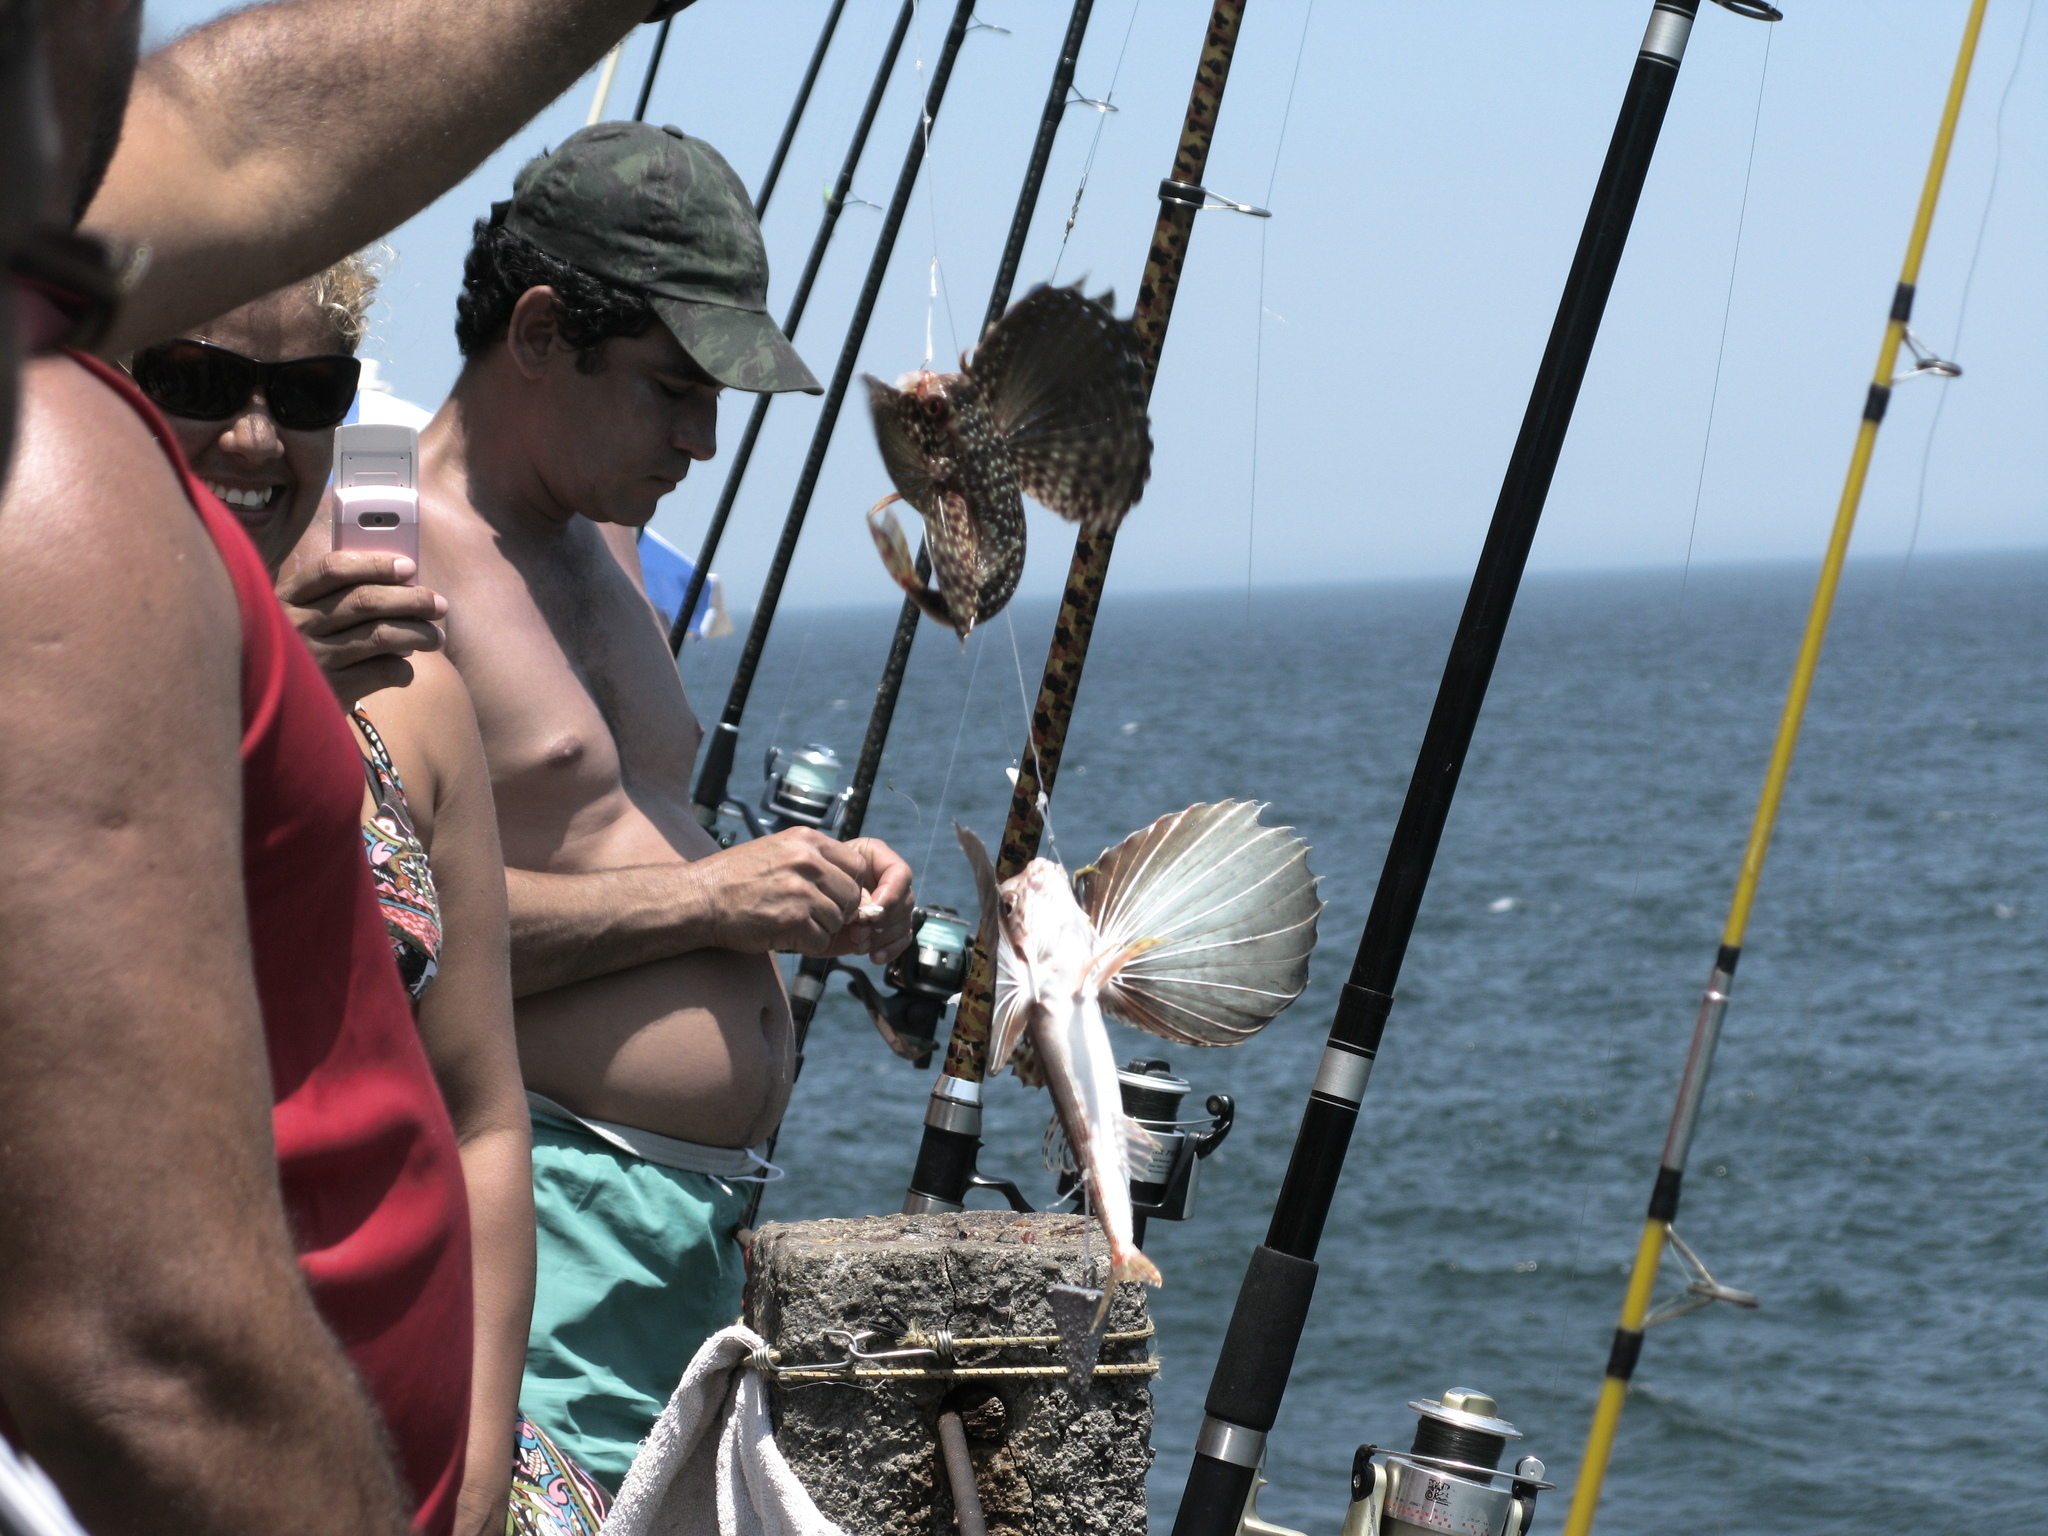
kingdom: Animalia
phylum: Chordata
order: Scorpaeniformes
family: Dactylopteridae
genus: Dactylopterus
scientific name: Dactylopterus volitans
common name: Flying gurnard
